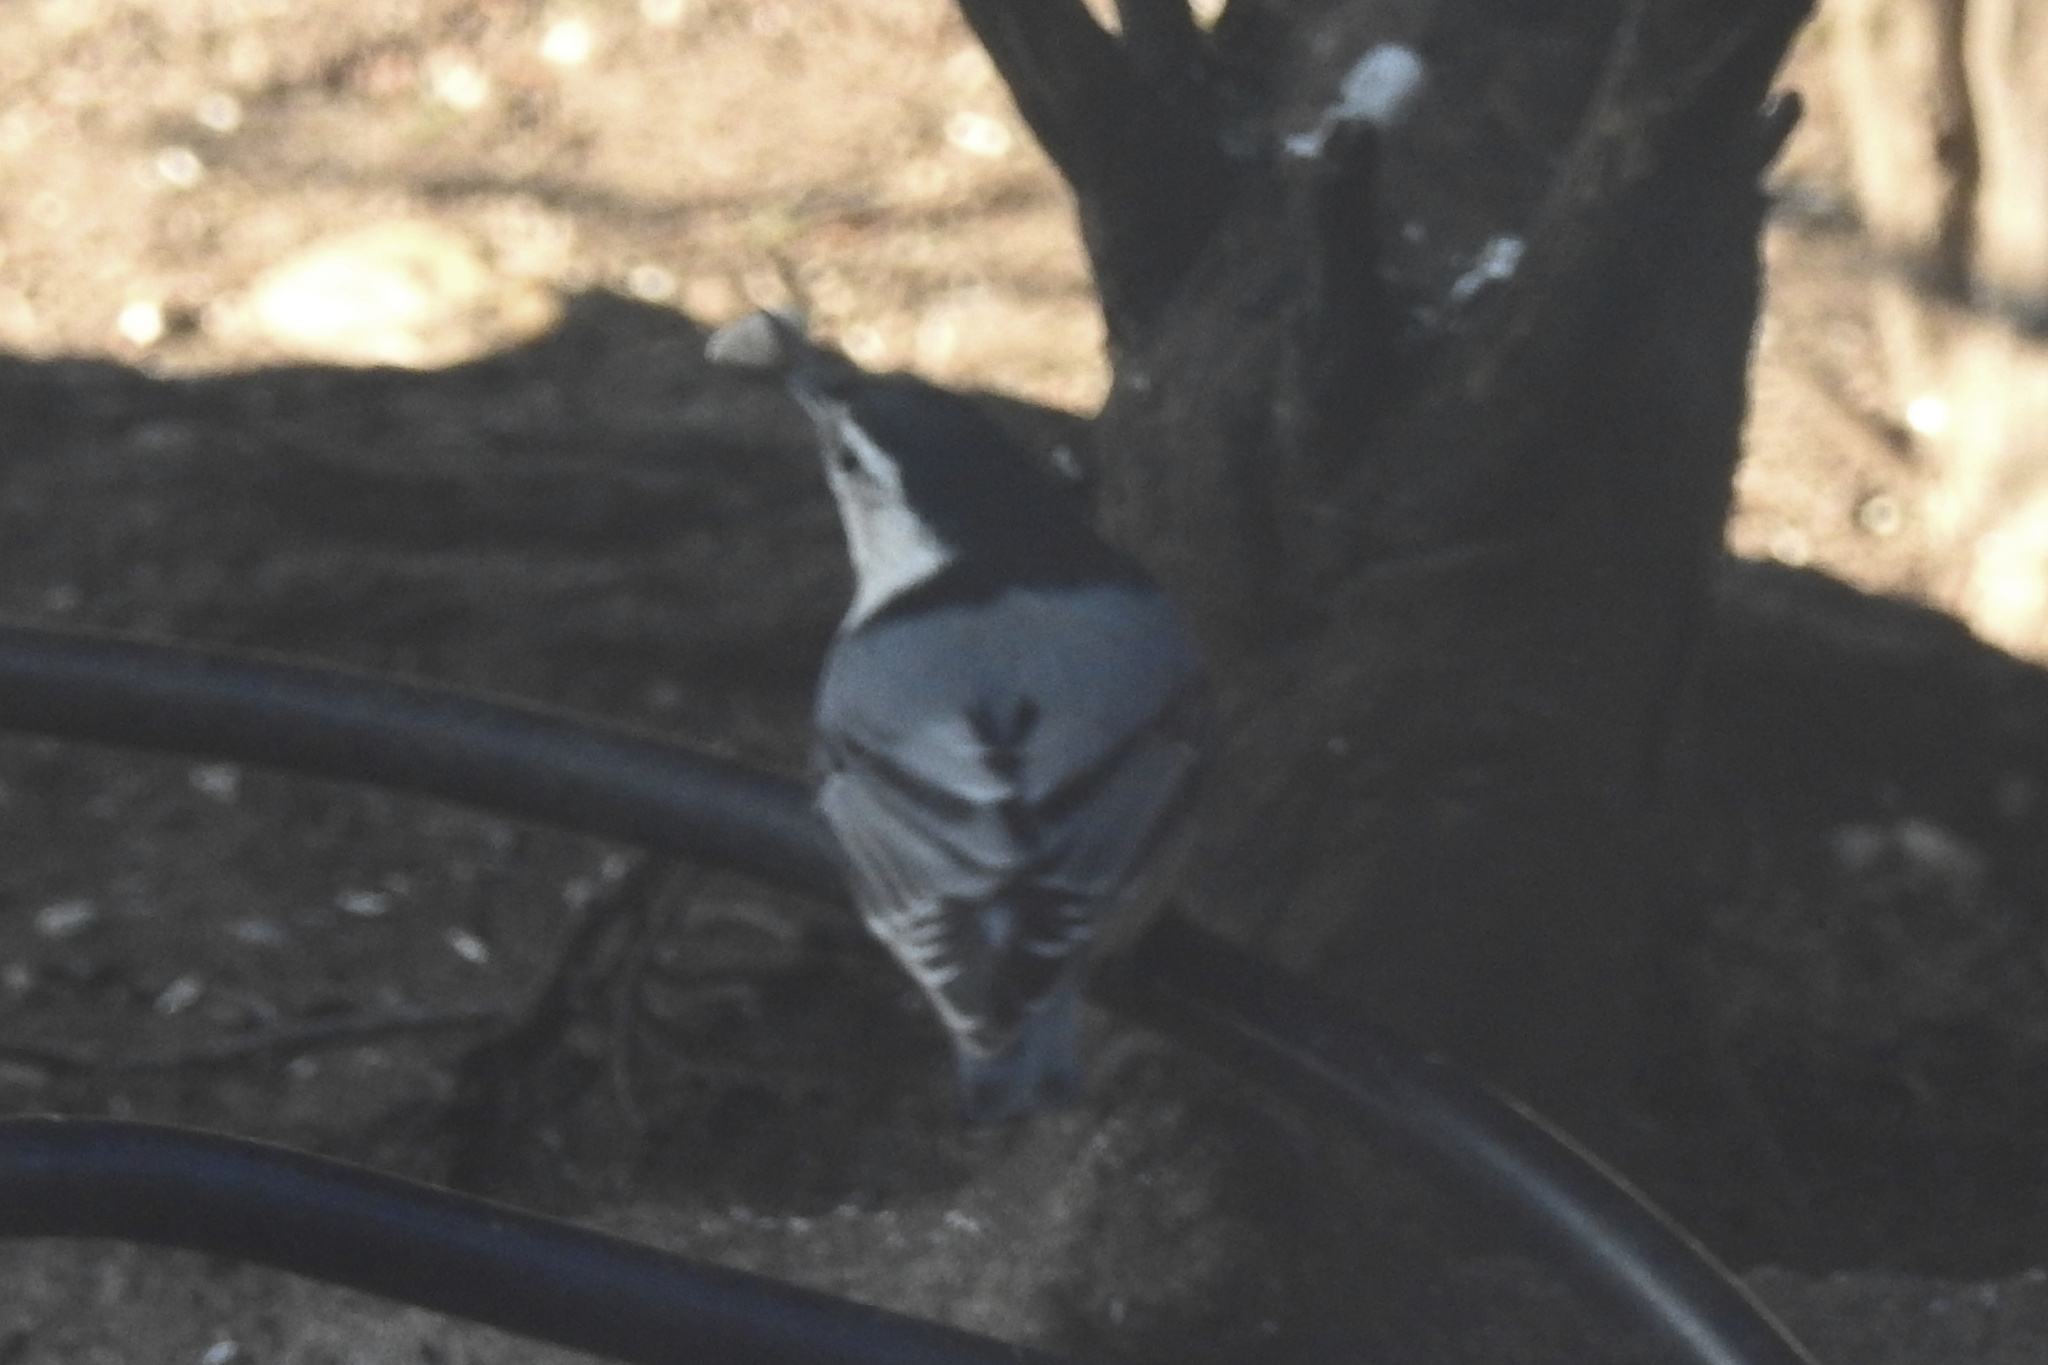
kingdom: Animalia
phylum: Chordata
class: Aves
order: Passeriformes
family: Sittidae
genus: Sitta
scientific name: Sitta carolinensis
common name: White-breasted nuthatch
